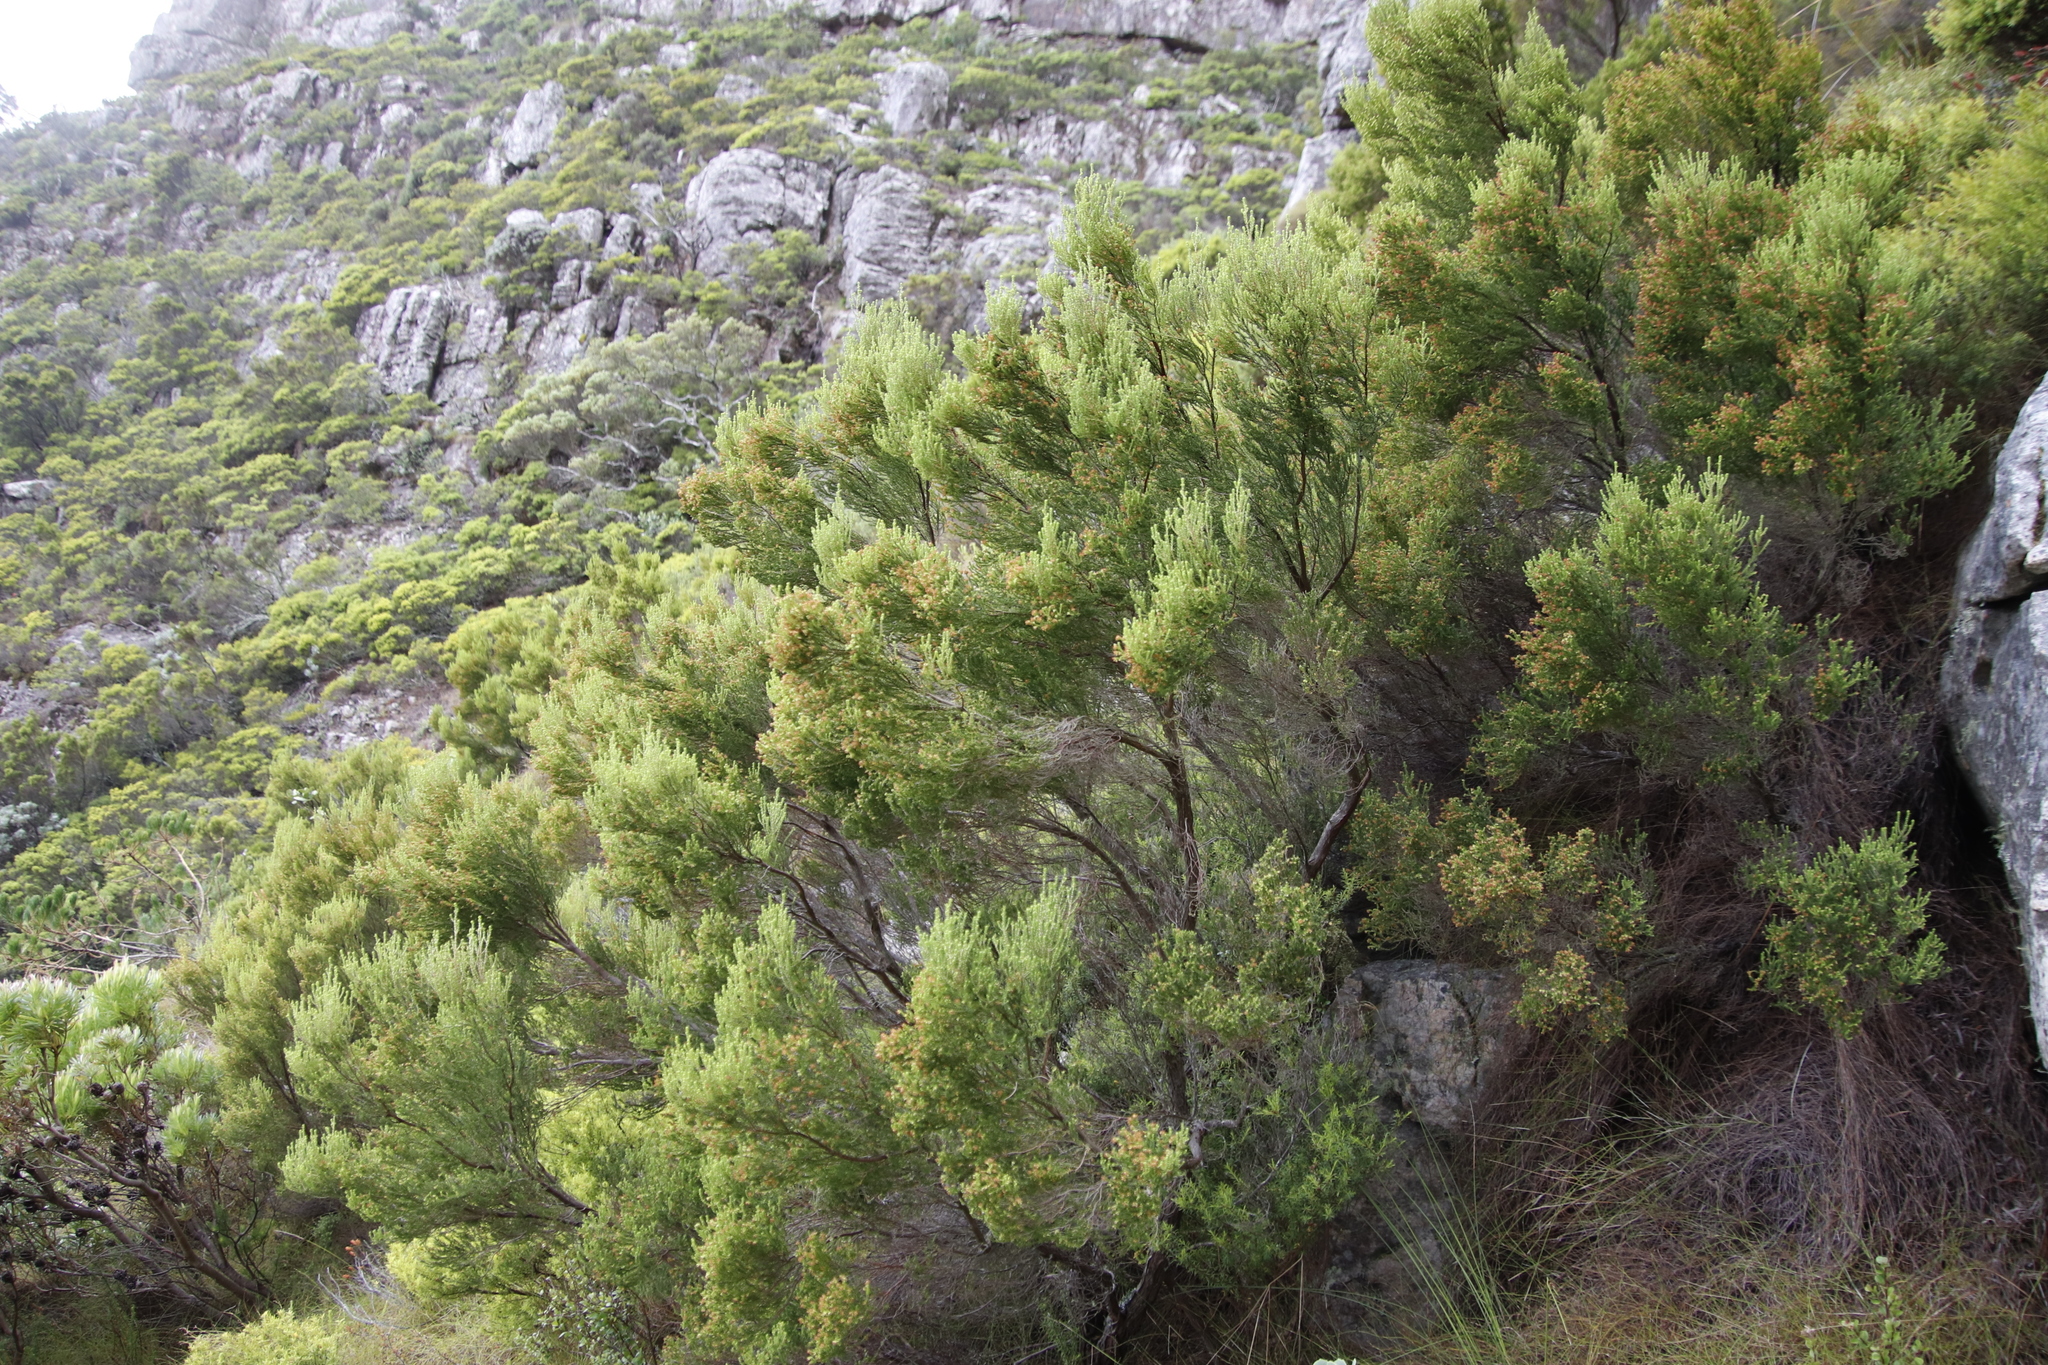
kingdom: Plantae
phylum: Tracheophyta
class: Magnoliopsida
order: Ericales
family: Ericaceae
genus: Erica
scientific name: Erica tristis
